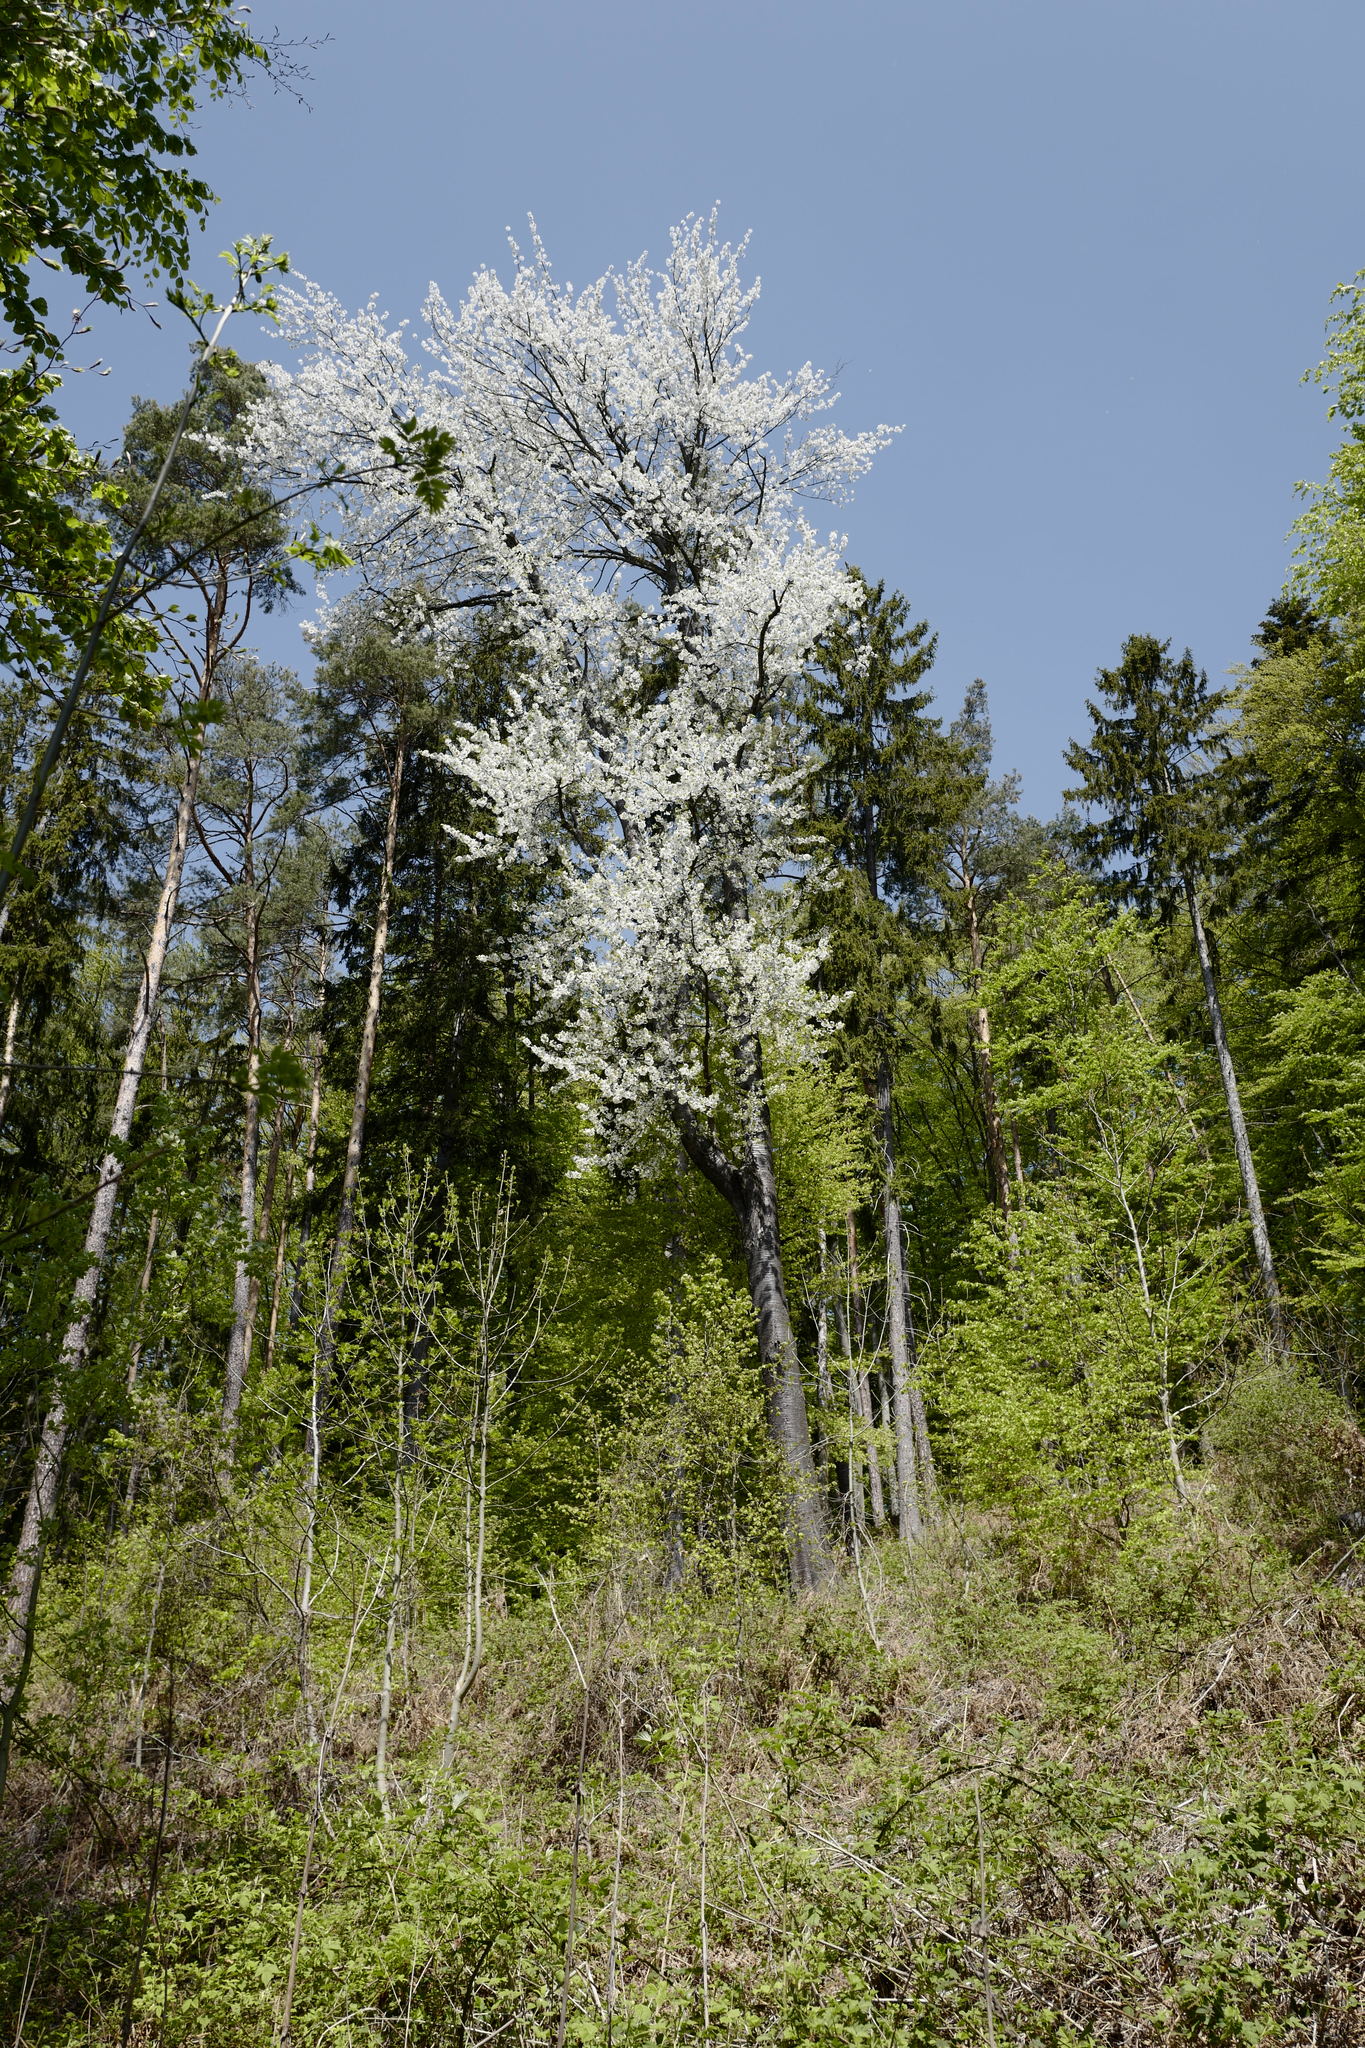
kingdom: Plantae
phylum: Tracheophyta
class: Magnoliopsida
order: Rosales
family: Rosaceae
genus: Prunus
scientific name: Prunus avium
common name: Sweet cherry
